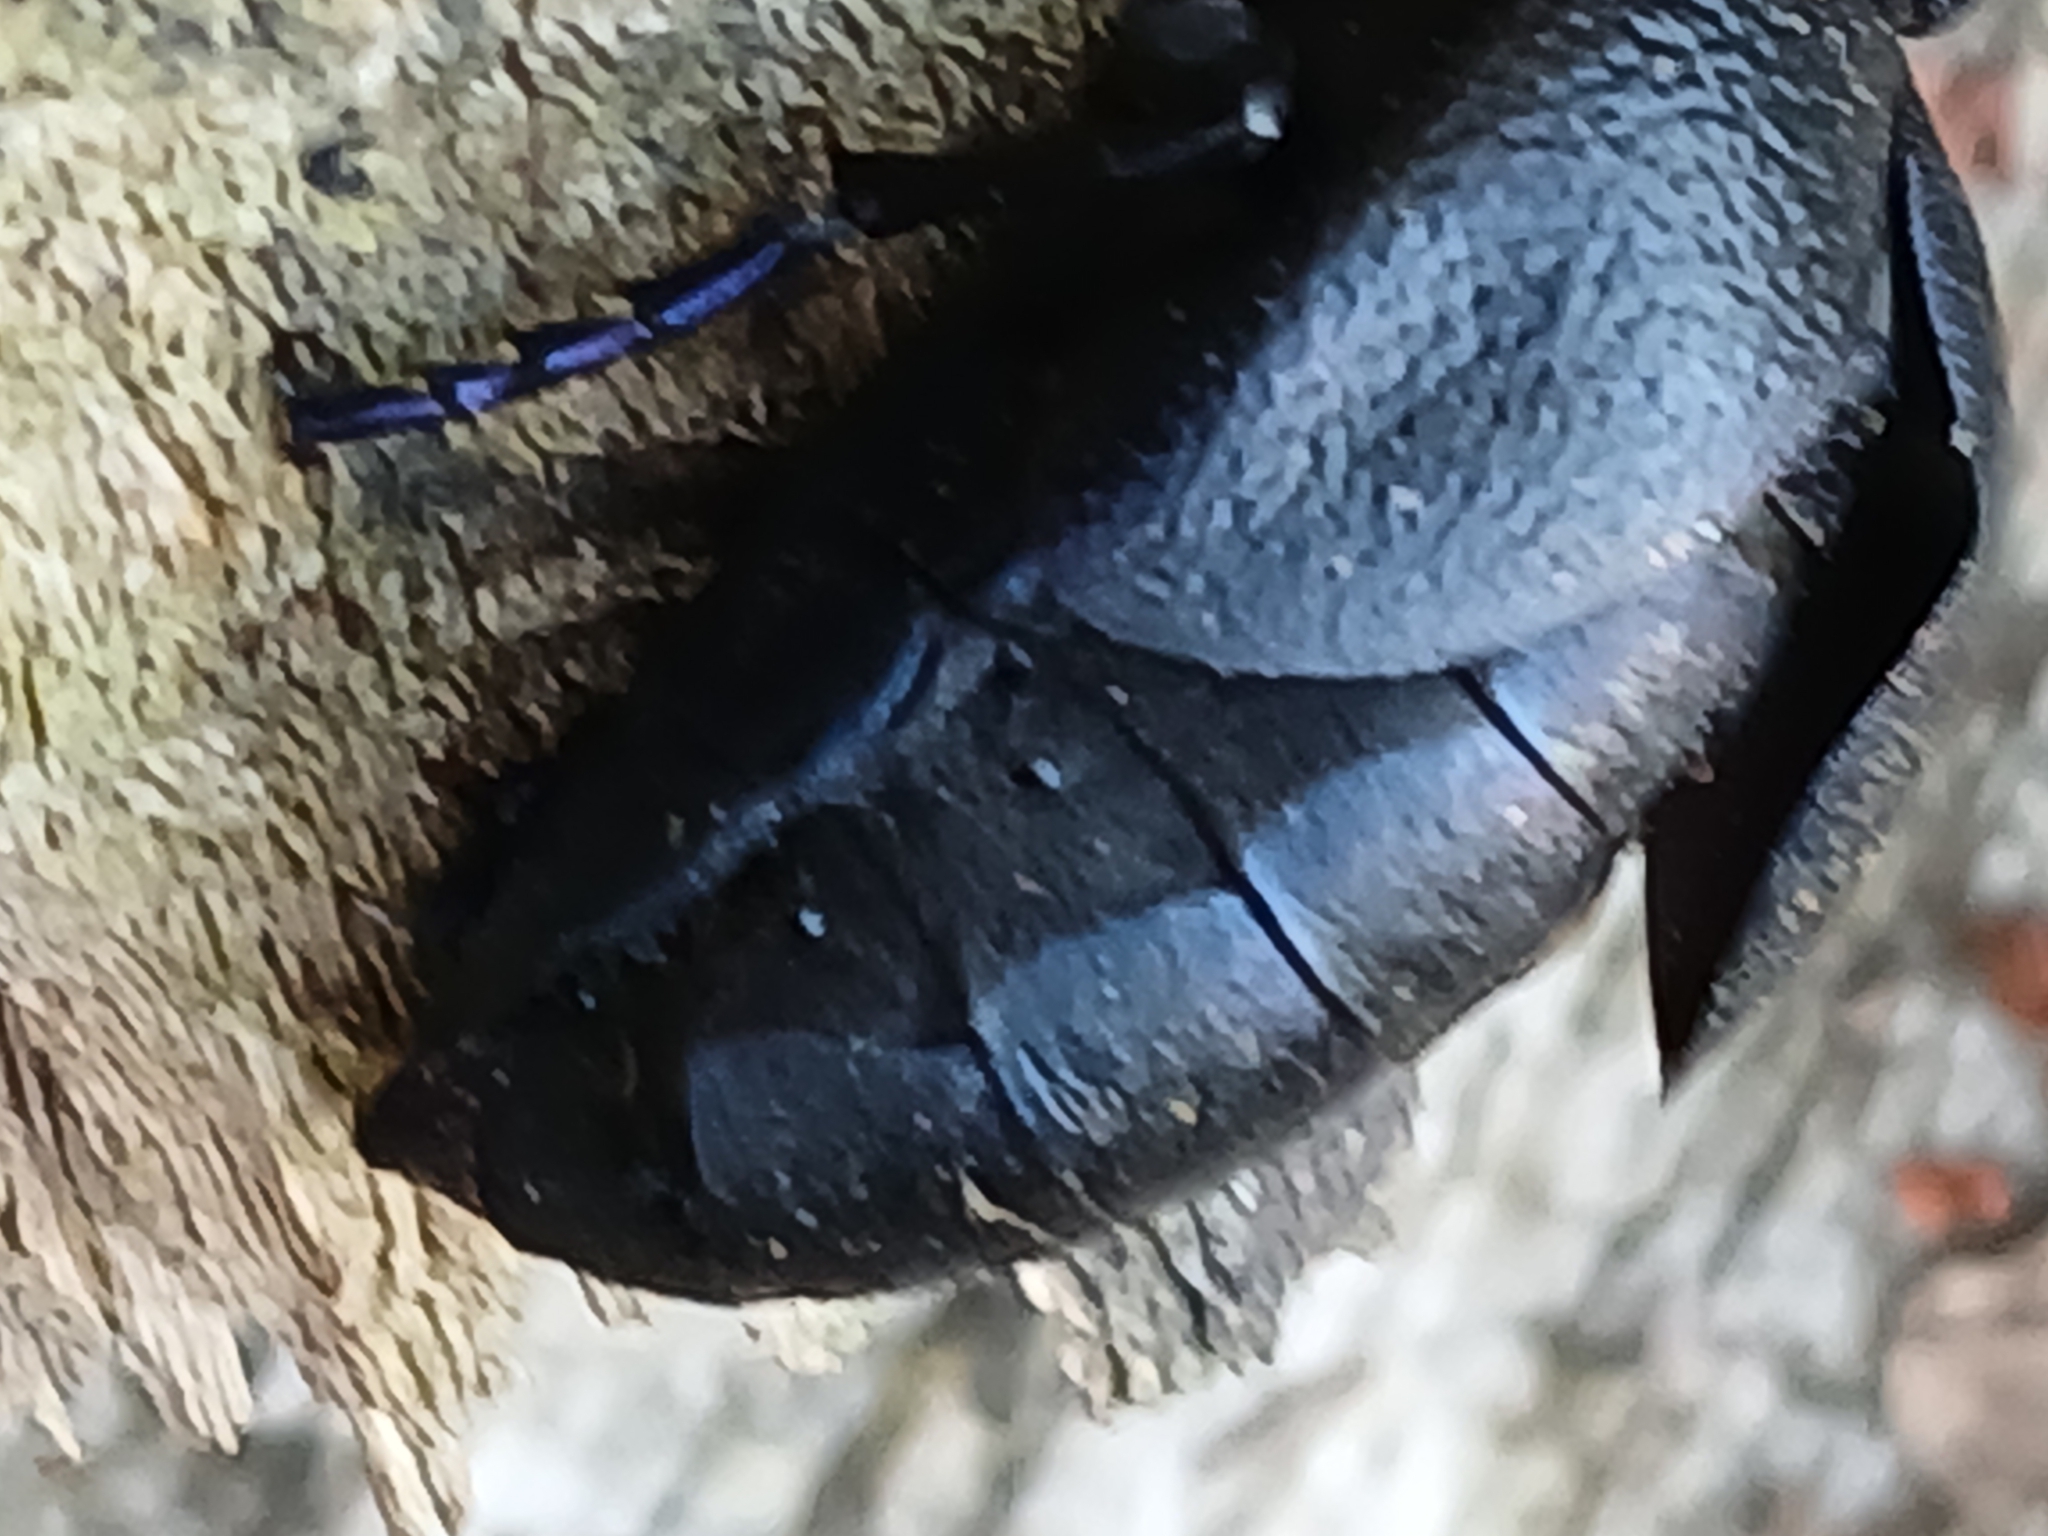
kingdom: Animalia
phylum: Arthropoda
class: Insecta
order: Coleoptera
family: Meloidae
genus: Meloe
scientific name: Meloe proscarabaeus
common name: Black oil-beetle
